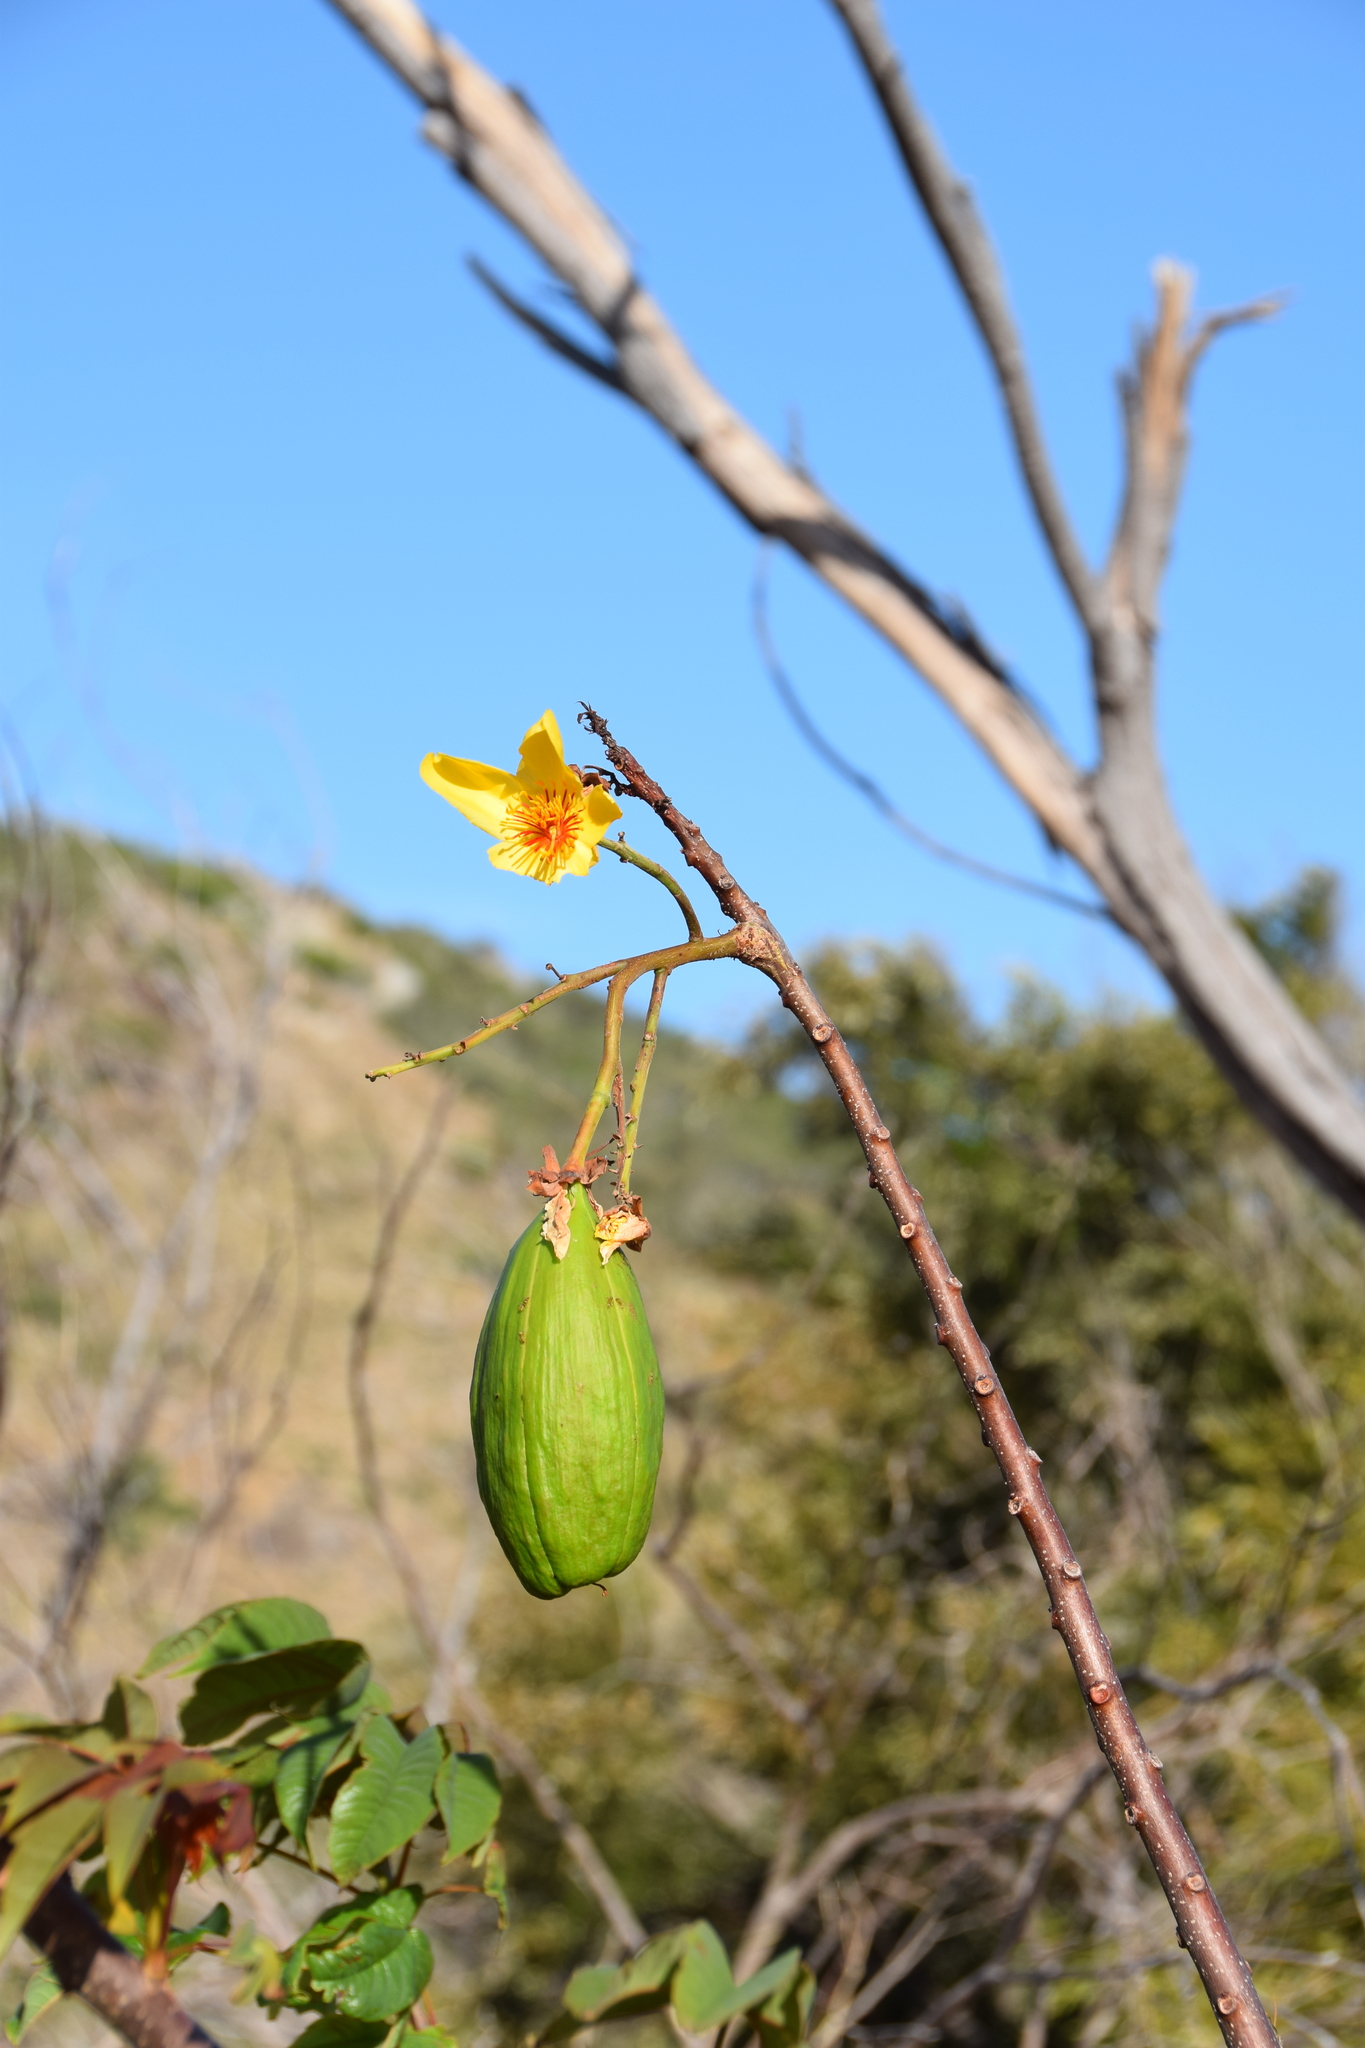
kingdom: Plantae
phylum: Tracheophyta
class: Magnoliopsida
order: Malvales
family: Cochlospermaceae
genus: Cochlospermum
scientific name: Cochlospermum gillivraei
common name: Cottontree
